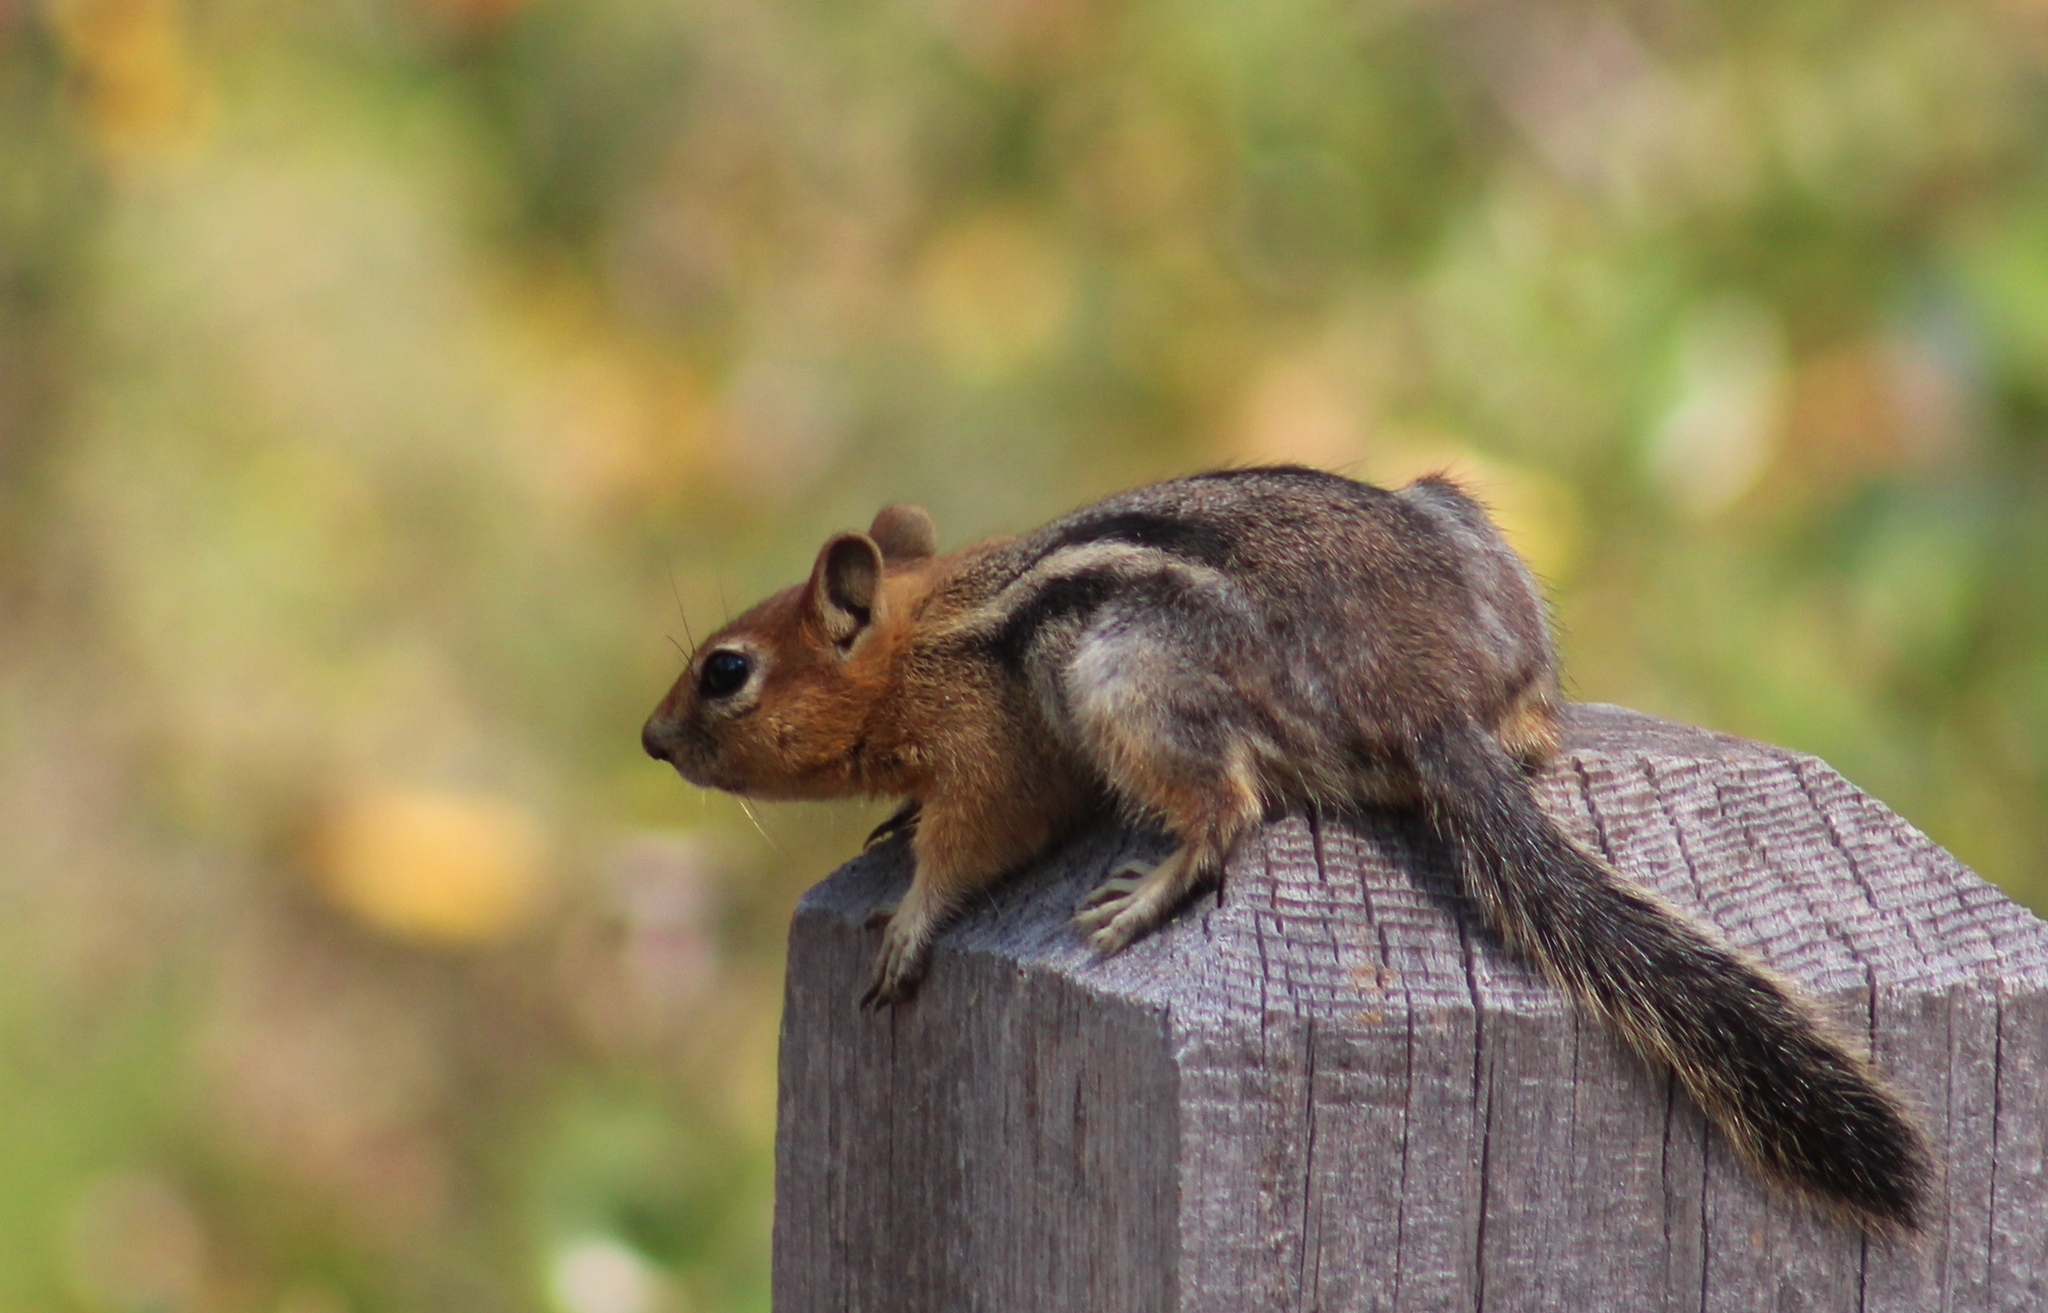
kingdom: Animalia
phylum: Chordata
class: Mammalia
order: Rodentia
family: Sciuridae
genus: Callospermophilus
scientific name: Callospermophilus lateralis
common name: Golden-mantled ground squirrel
